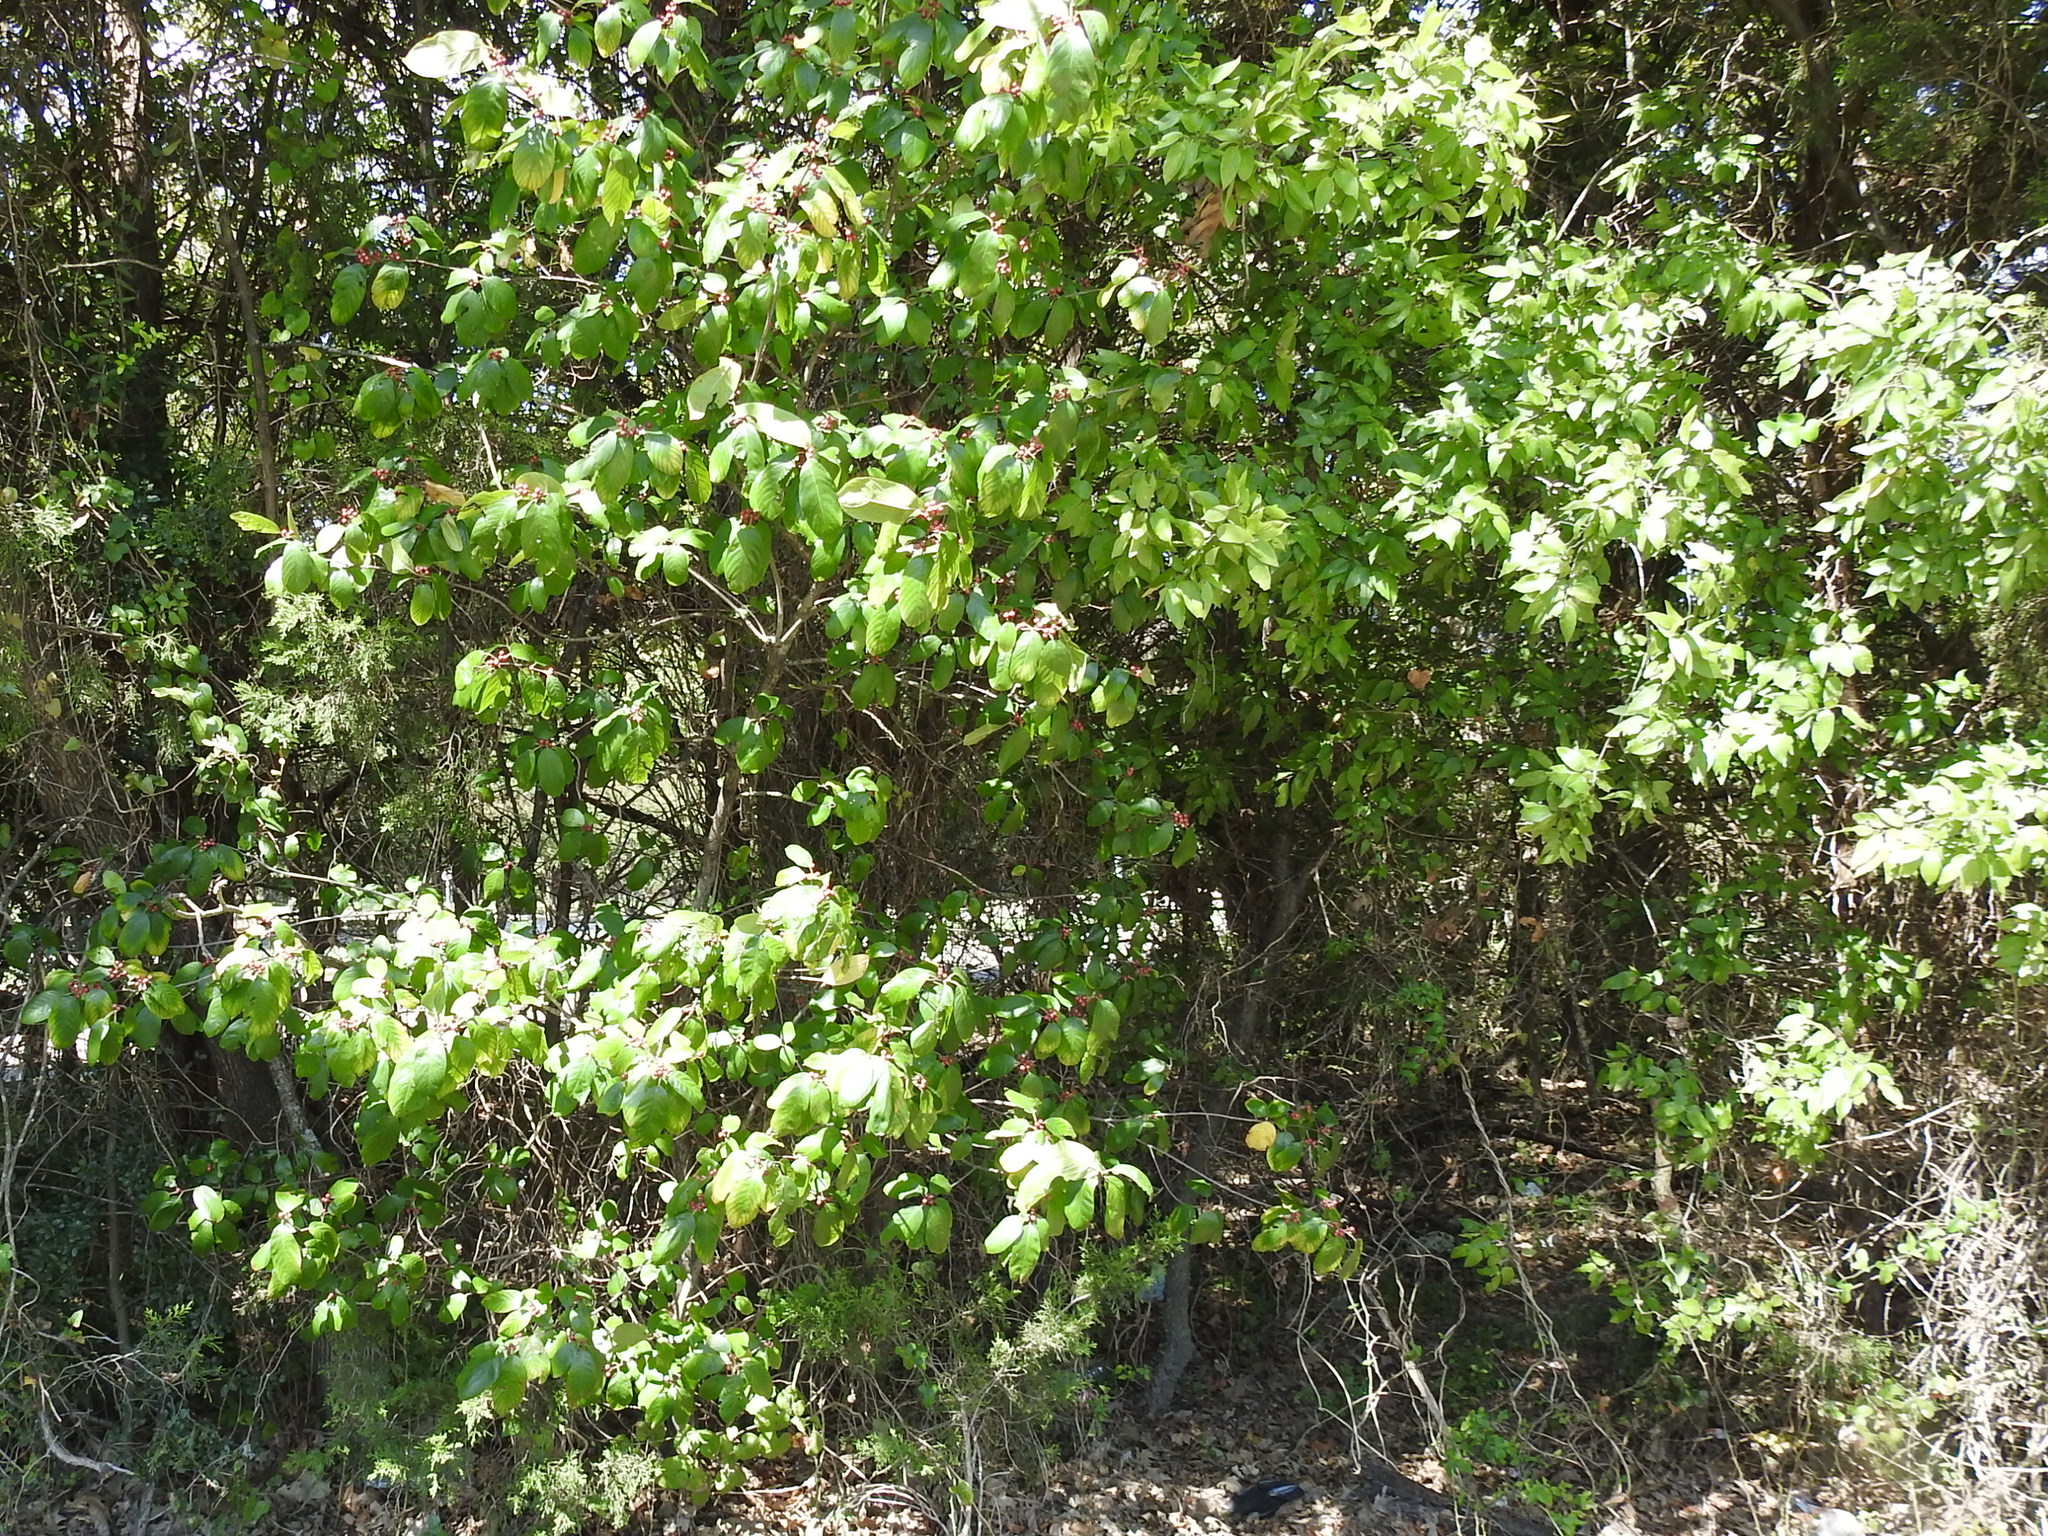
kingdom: Plantae
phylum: Tracheophyta
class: Magnoliopsida
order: Rosales
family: Rhamnaceae
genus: Frangula
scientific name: Frangula caroliniana
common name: Carolina buckthorn
